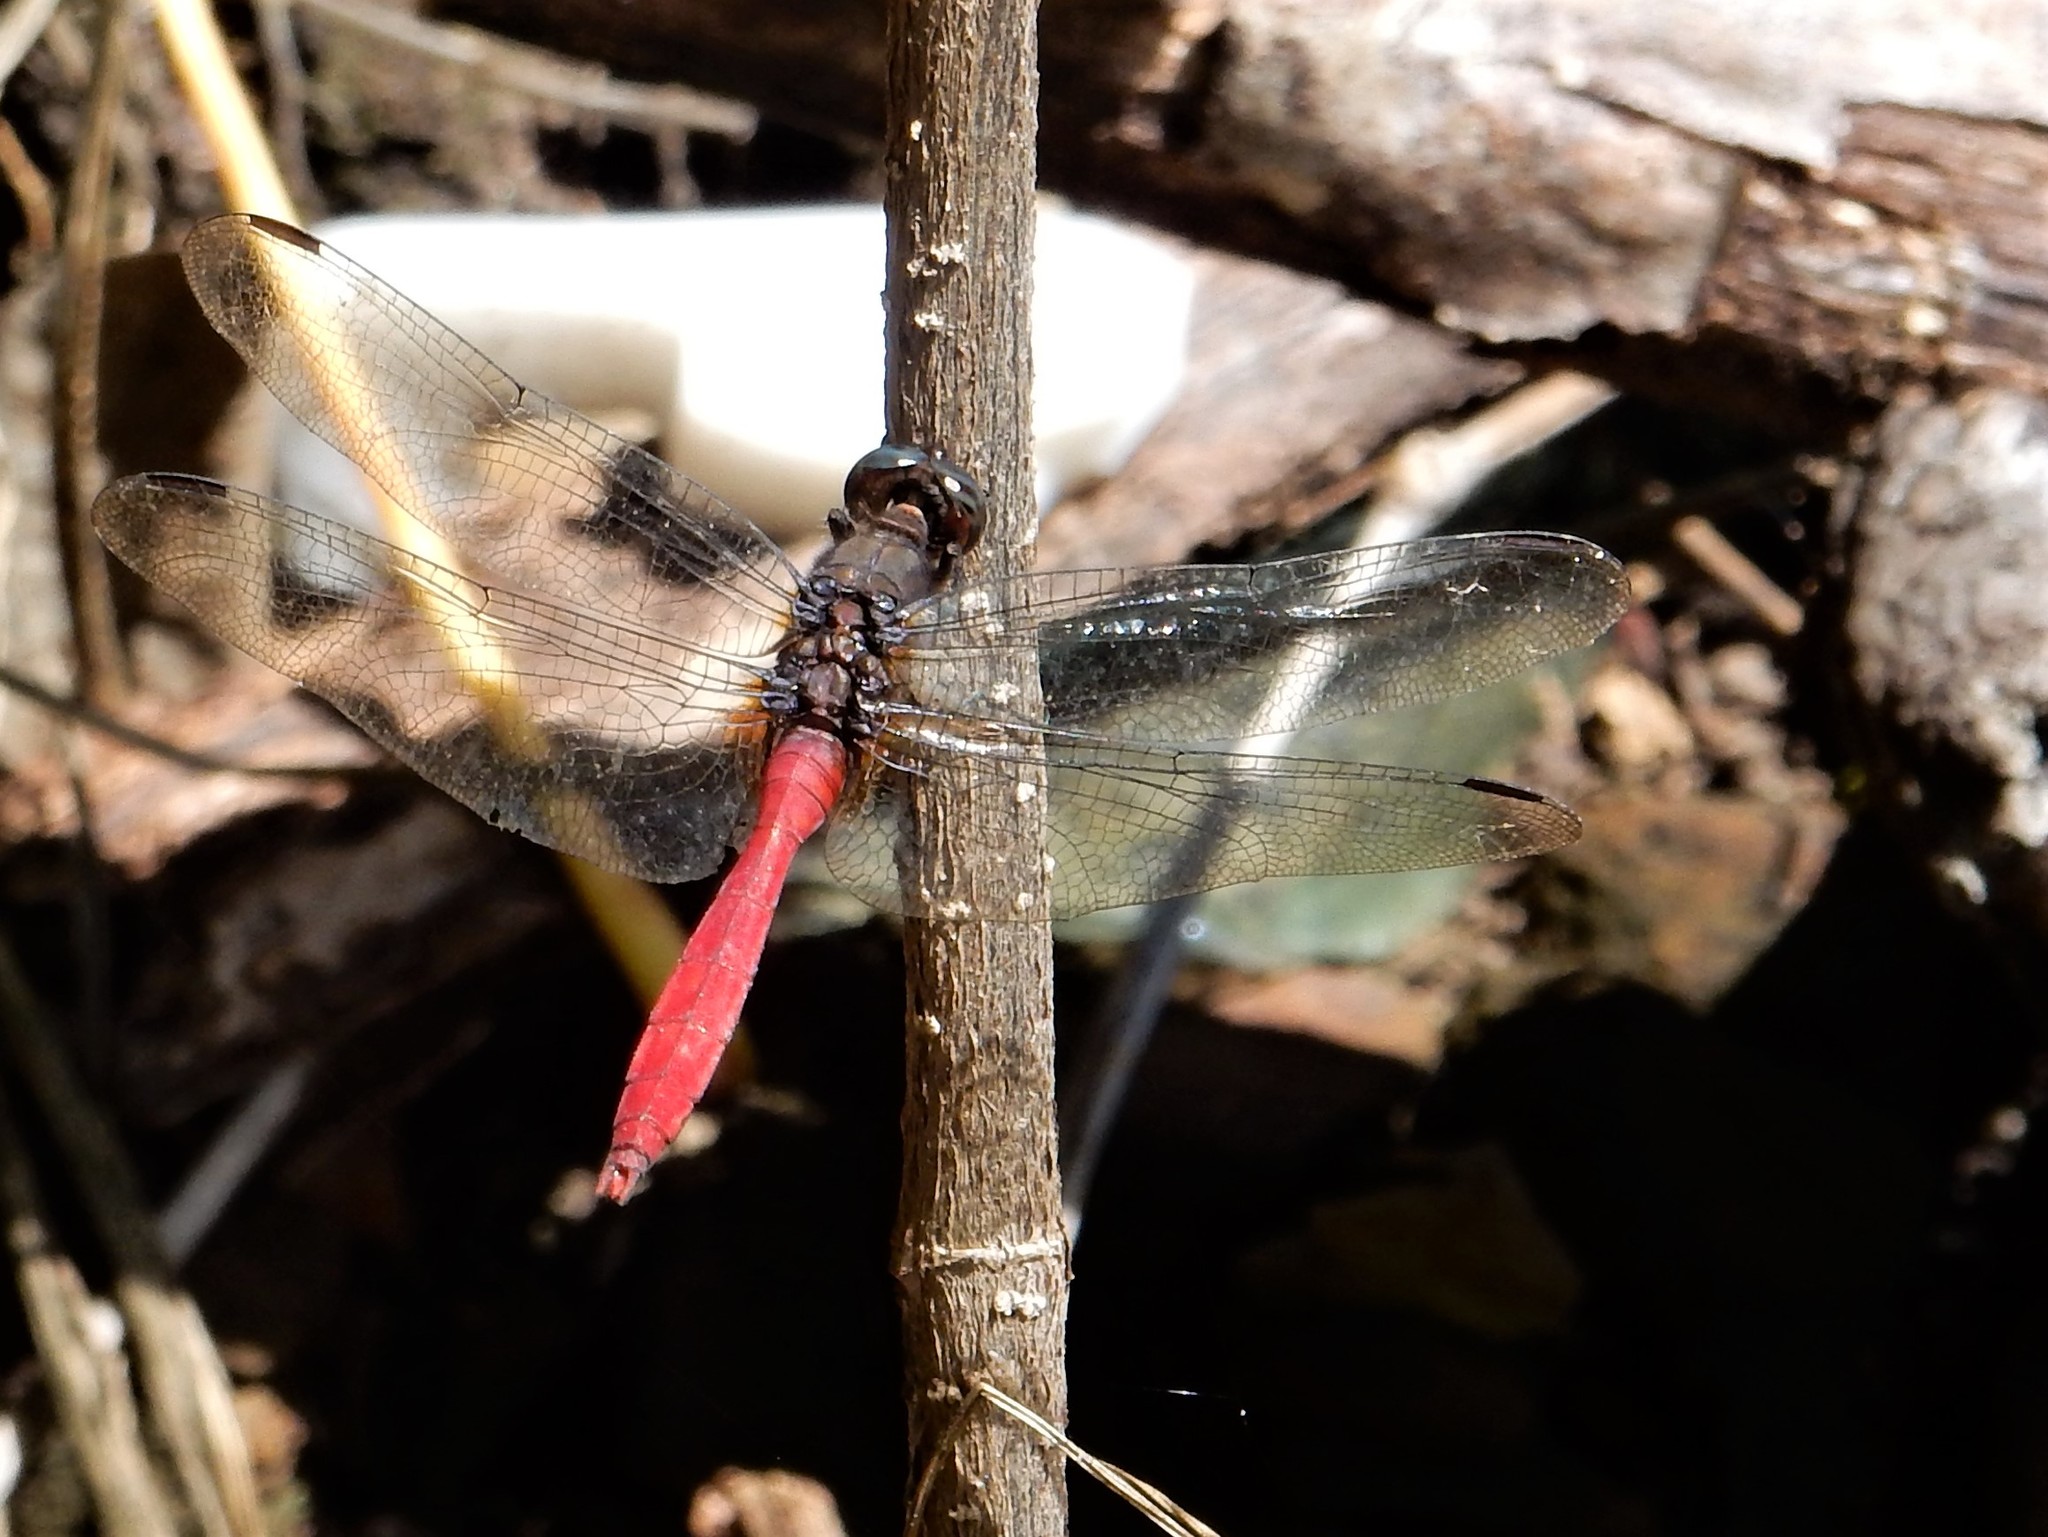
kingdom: Animalia
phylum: Arthropoda
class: Insecta
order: Odonata
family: Libellulidae
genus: Orthetrum
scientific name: Orthetrum villosovittatum
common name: Firery skimmer
